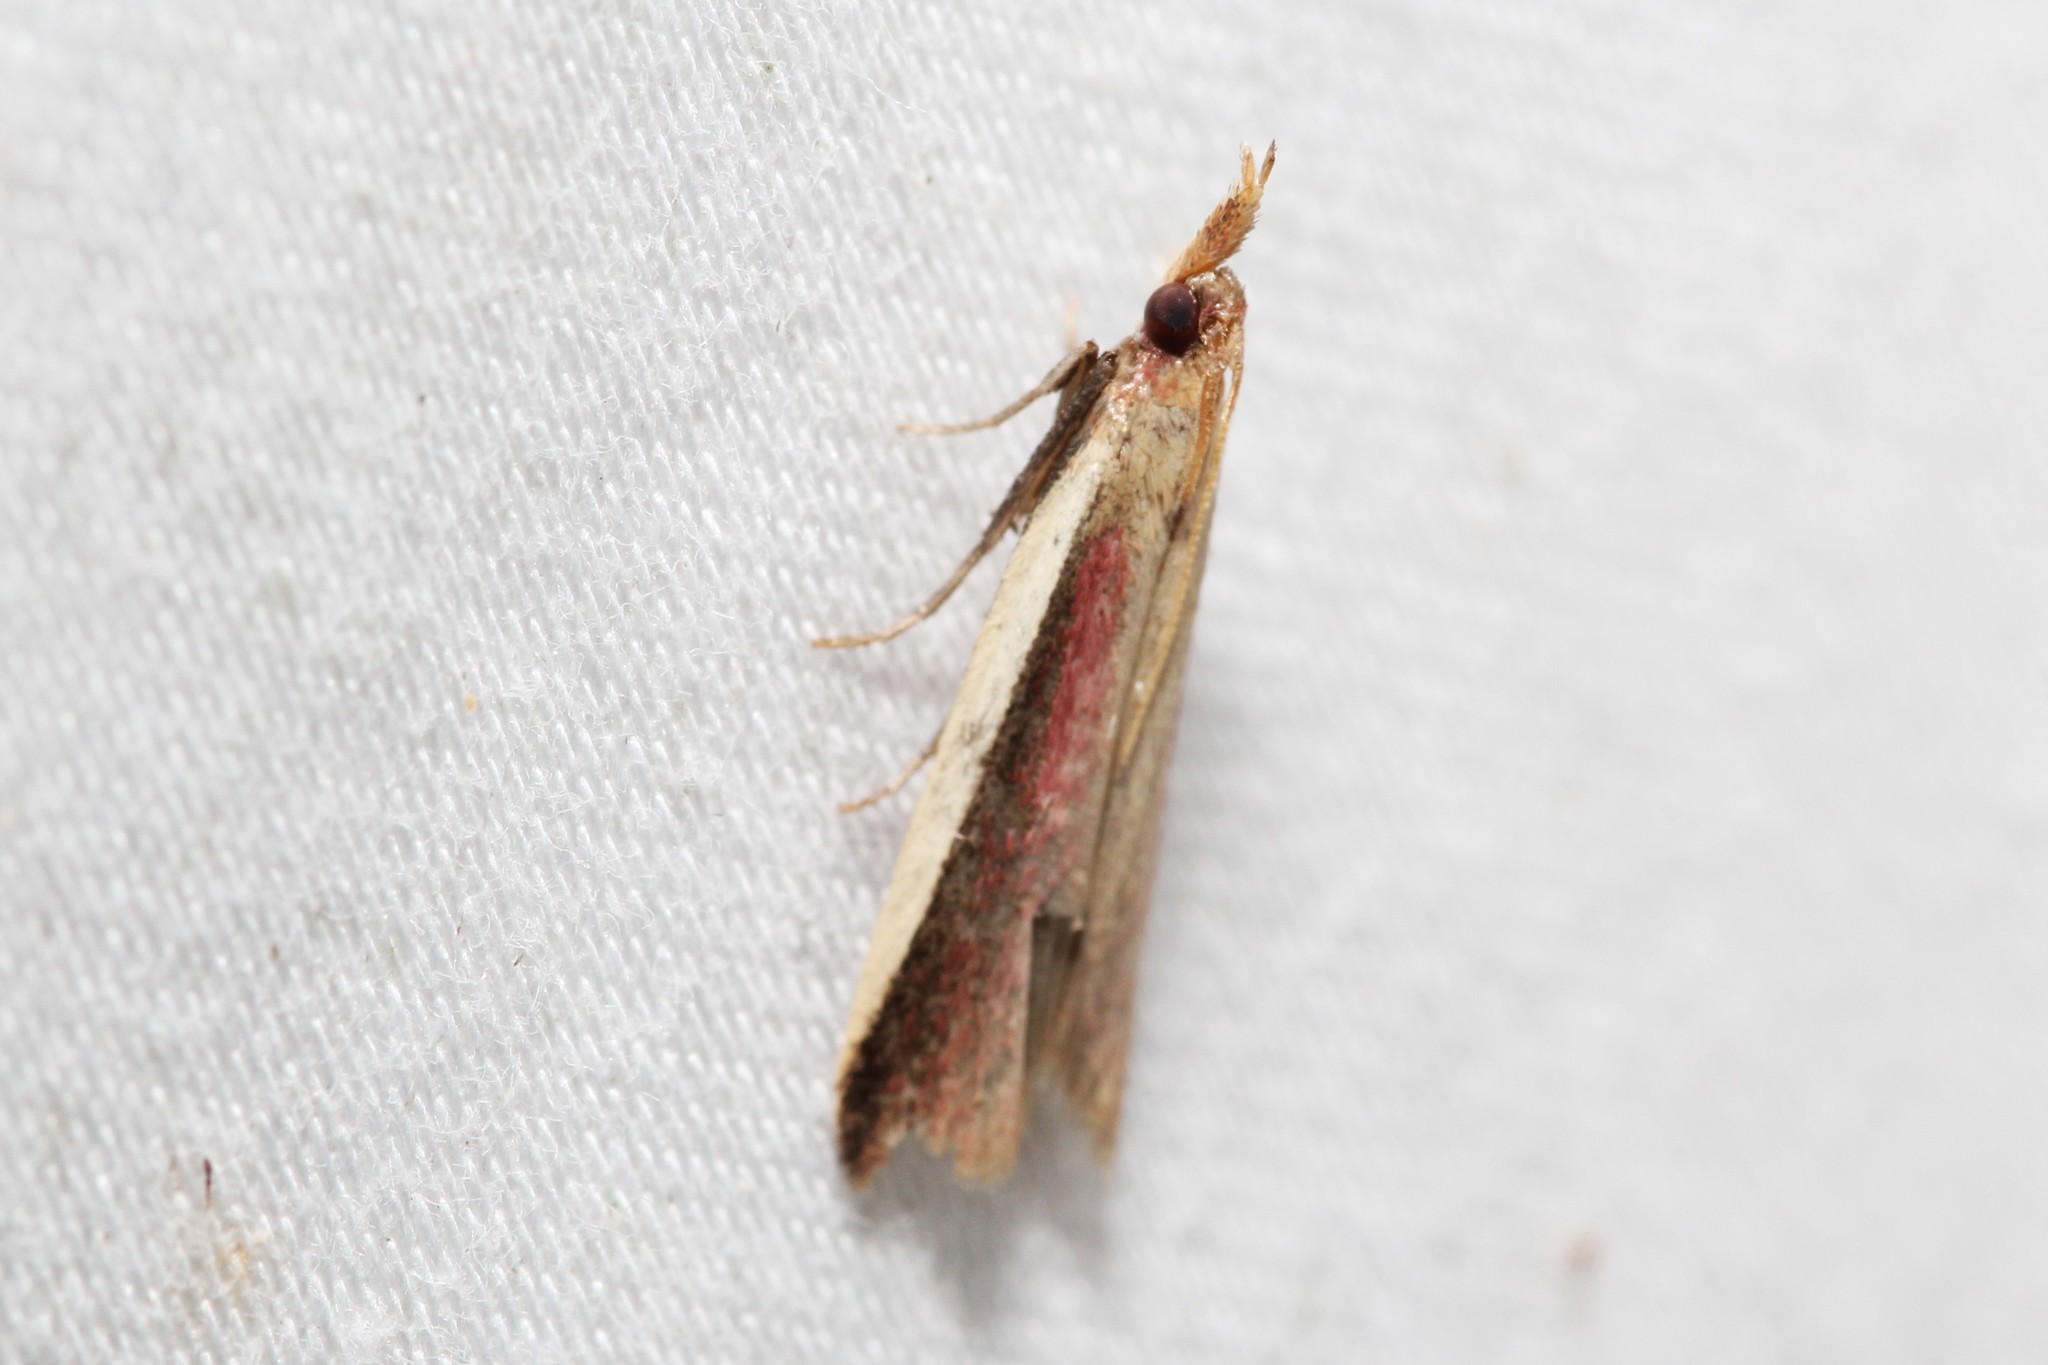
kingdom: Animalia
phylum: Arthropoda
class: Insecta
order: Lepidoptera
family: Pyralidae
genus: Peoria
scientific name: Peoria approximella
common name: Carmine snout
